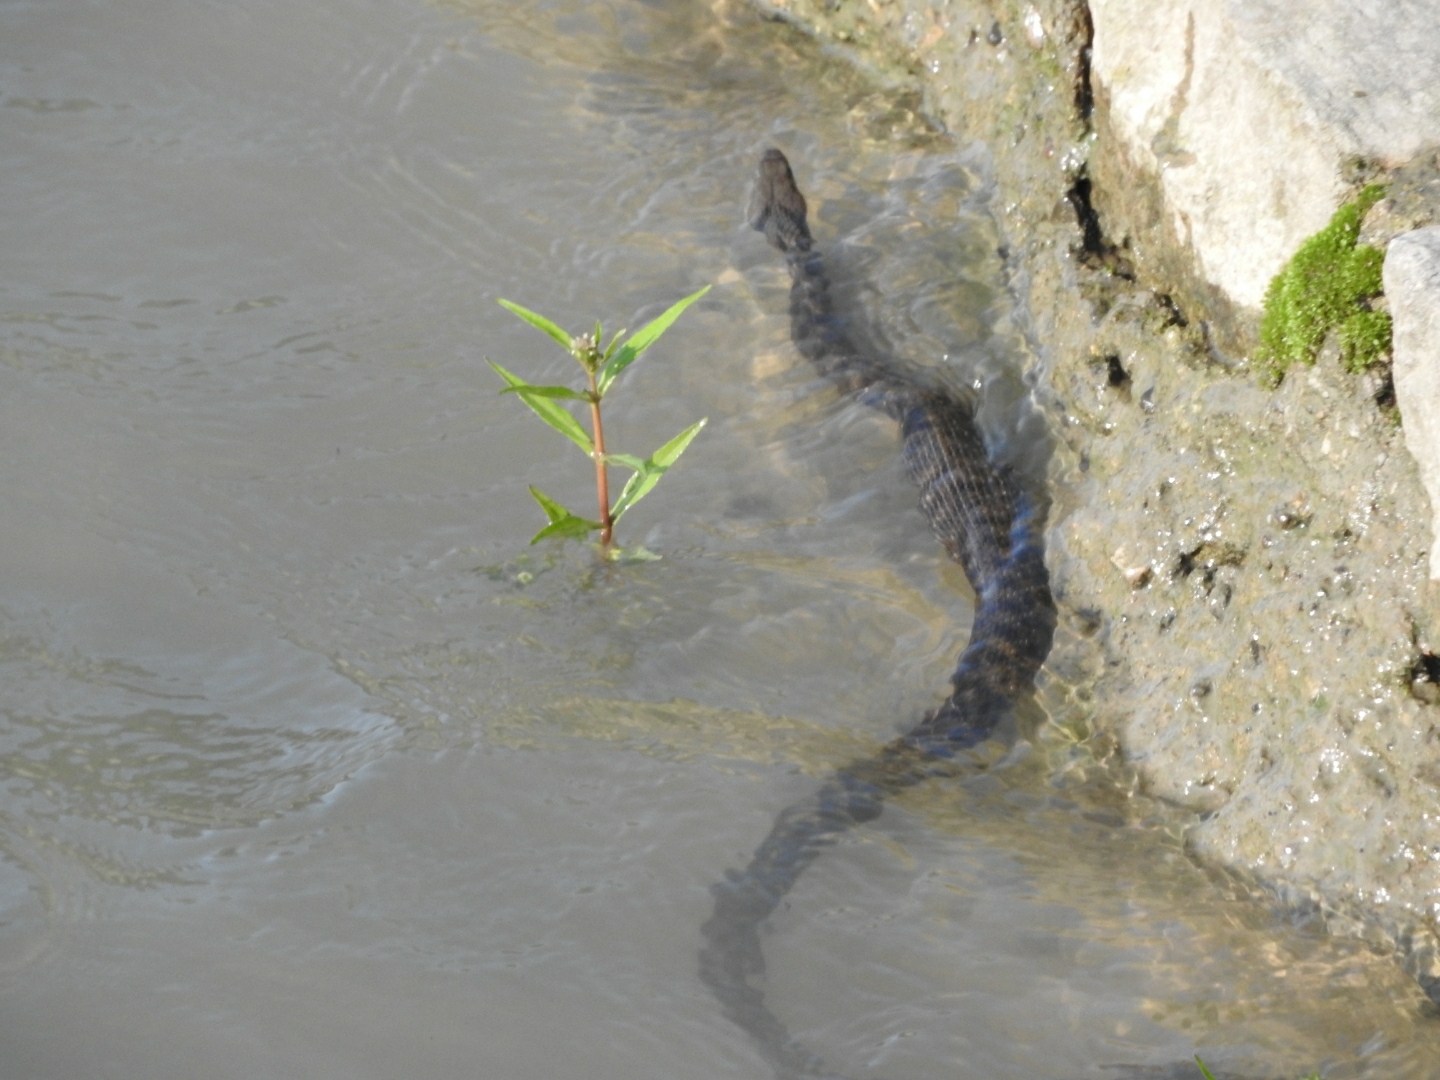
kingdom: Animalia
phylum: Chordata
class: Squamata
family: Colubridae
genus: Natrix
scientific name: Natrix tessellata
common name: Dice snake
